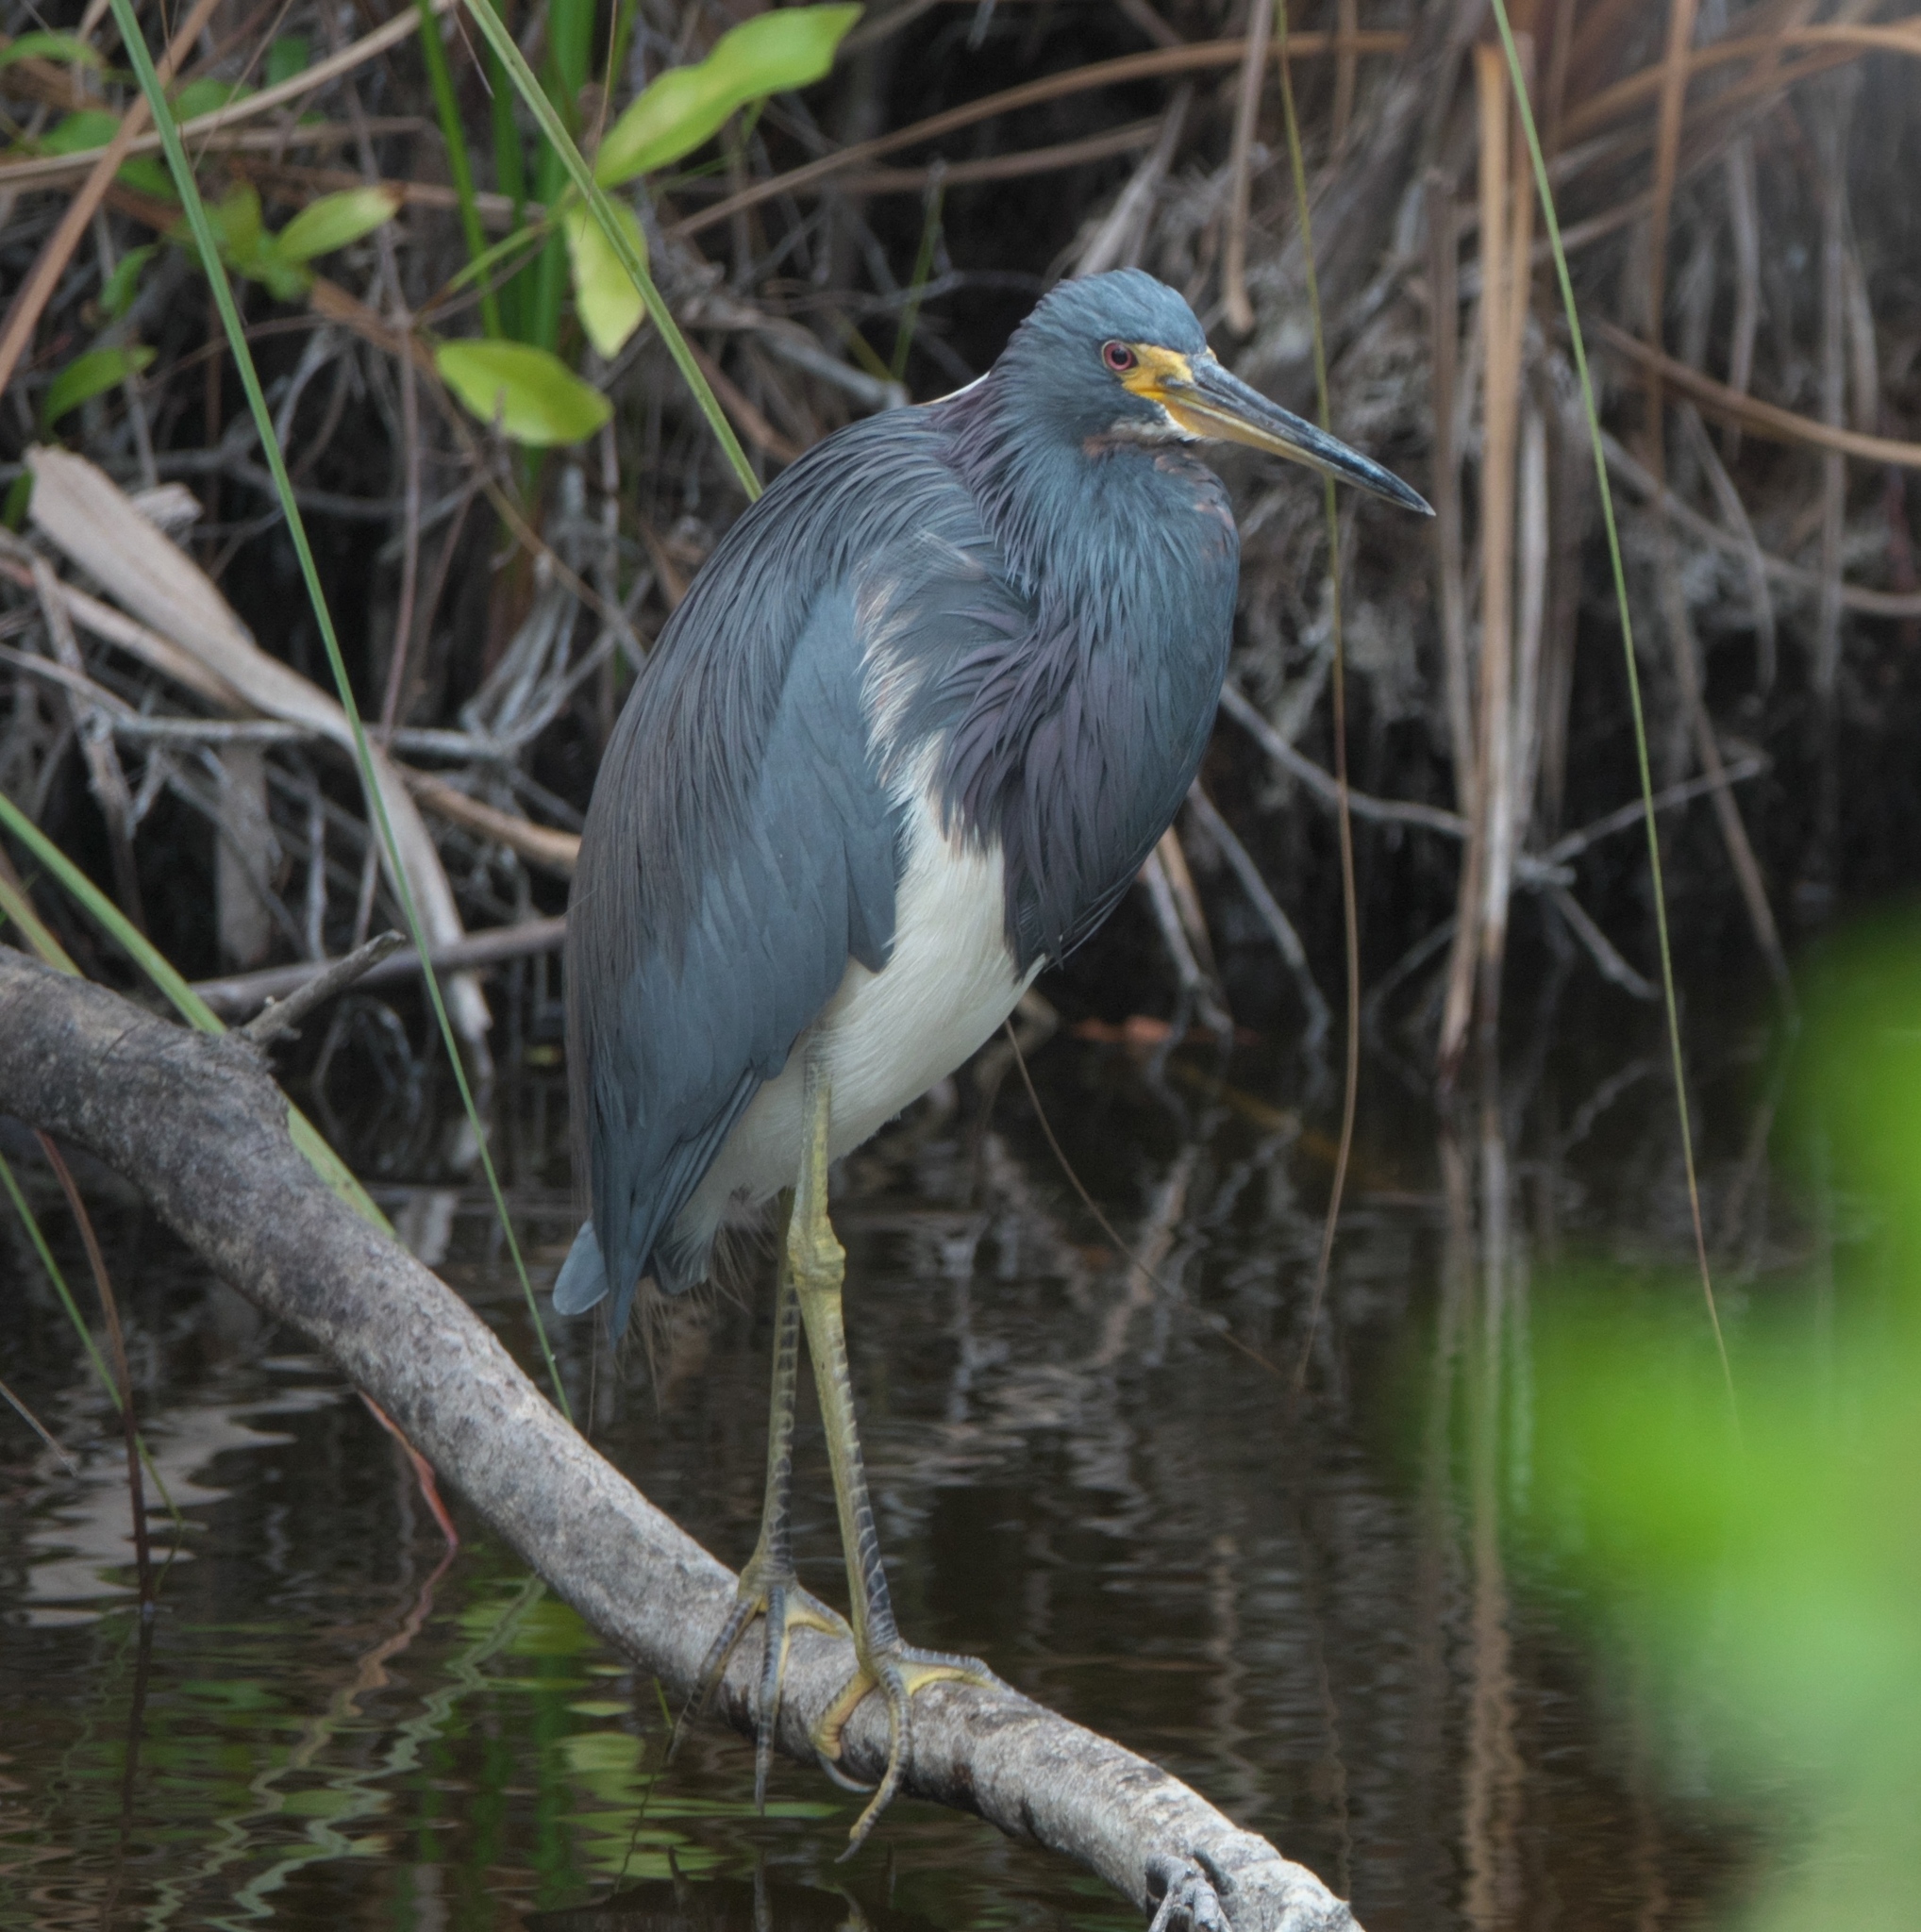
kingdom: Animalia
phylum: Chordata
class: Aves
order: Pelecaniformes
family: Ardeidae
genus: Egretta
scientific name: Egretta tricolor
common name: Tricolored heron
